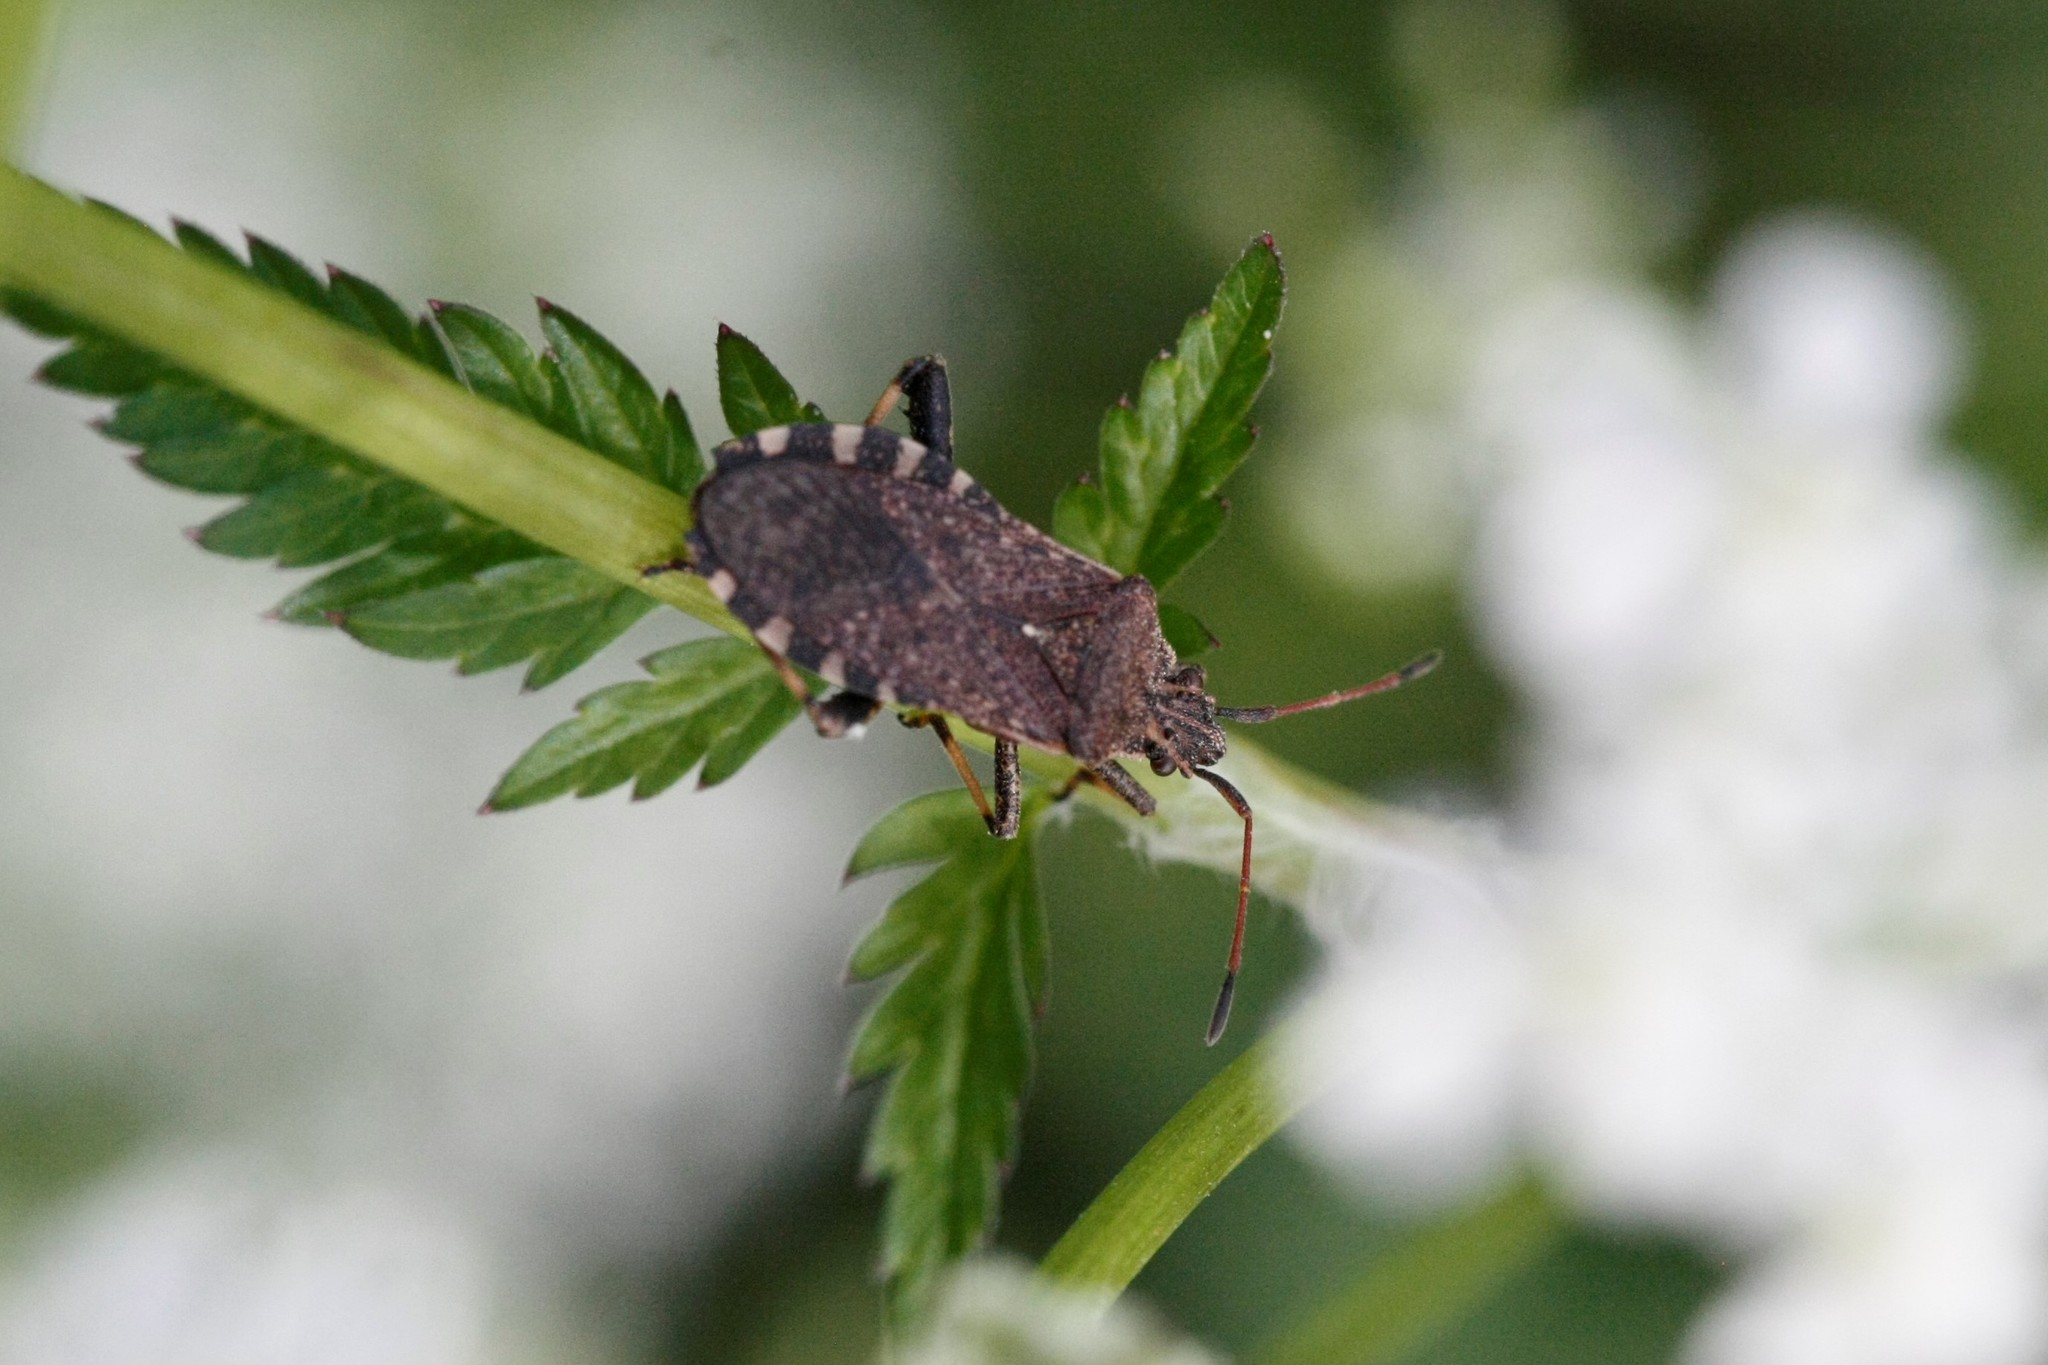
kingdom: Animalia
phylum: Arthropoda
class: Insecta
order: Hemiptera
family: Coreidae
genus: Ceraleptus
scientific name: Ceraleptus gracilicornis
